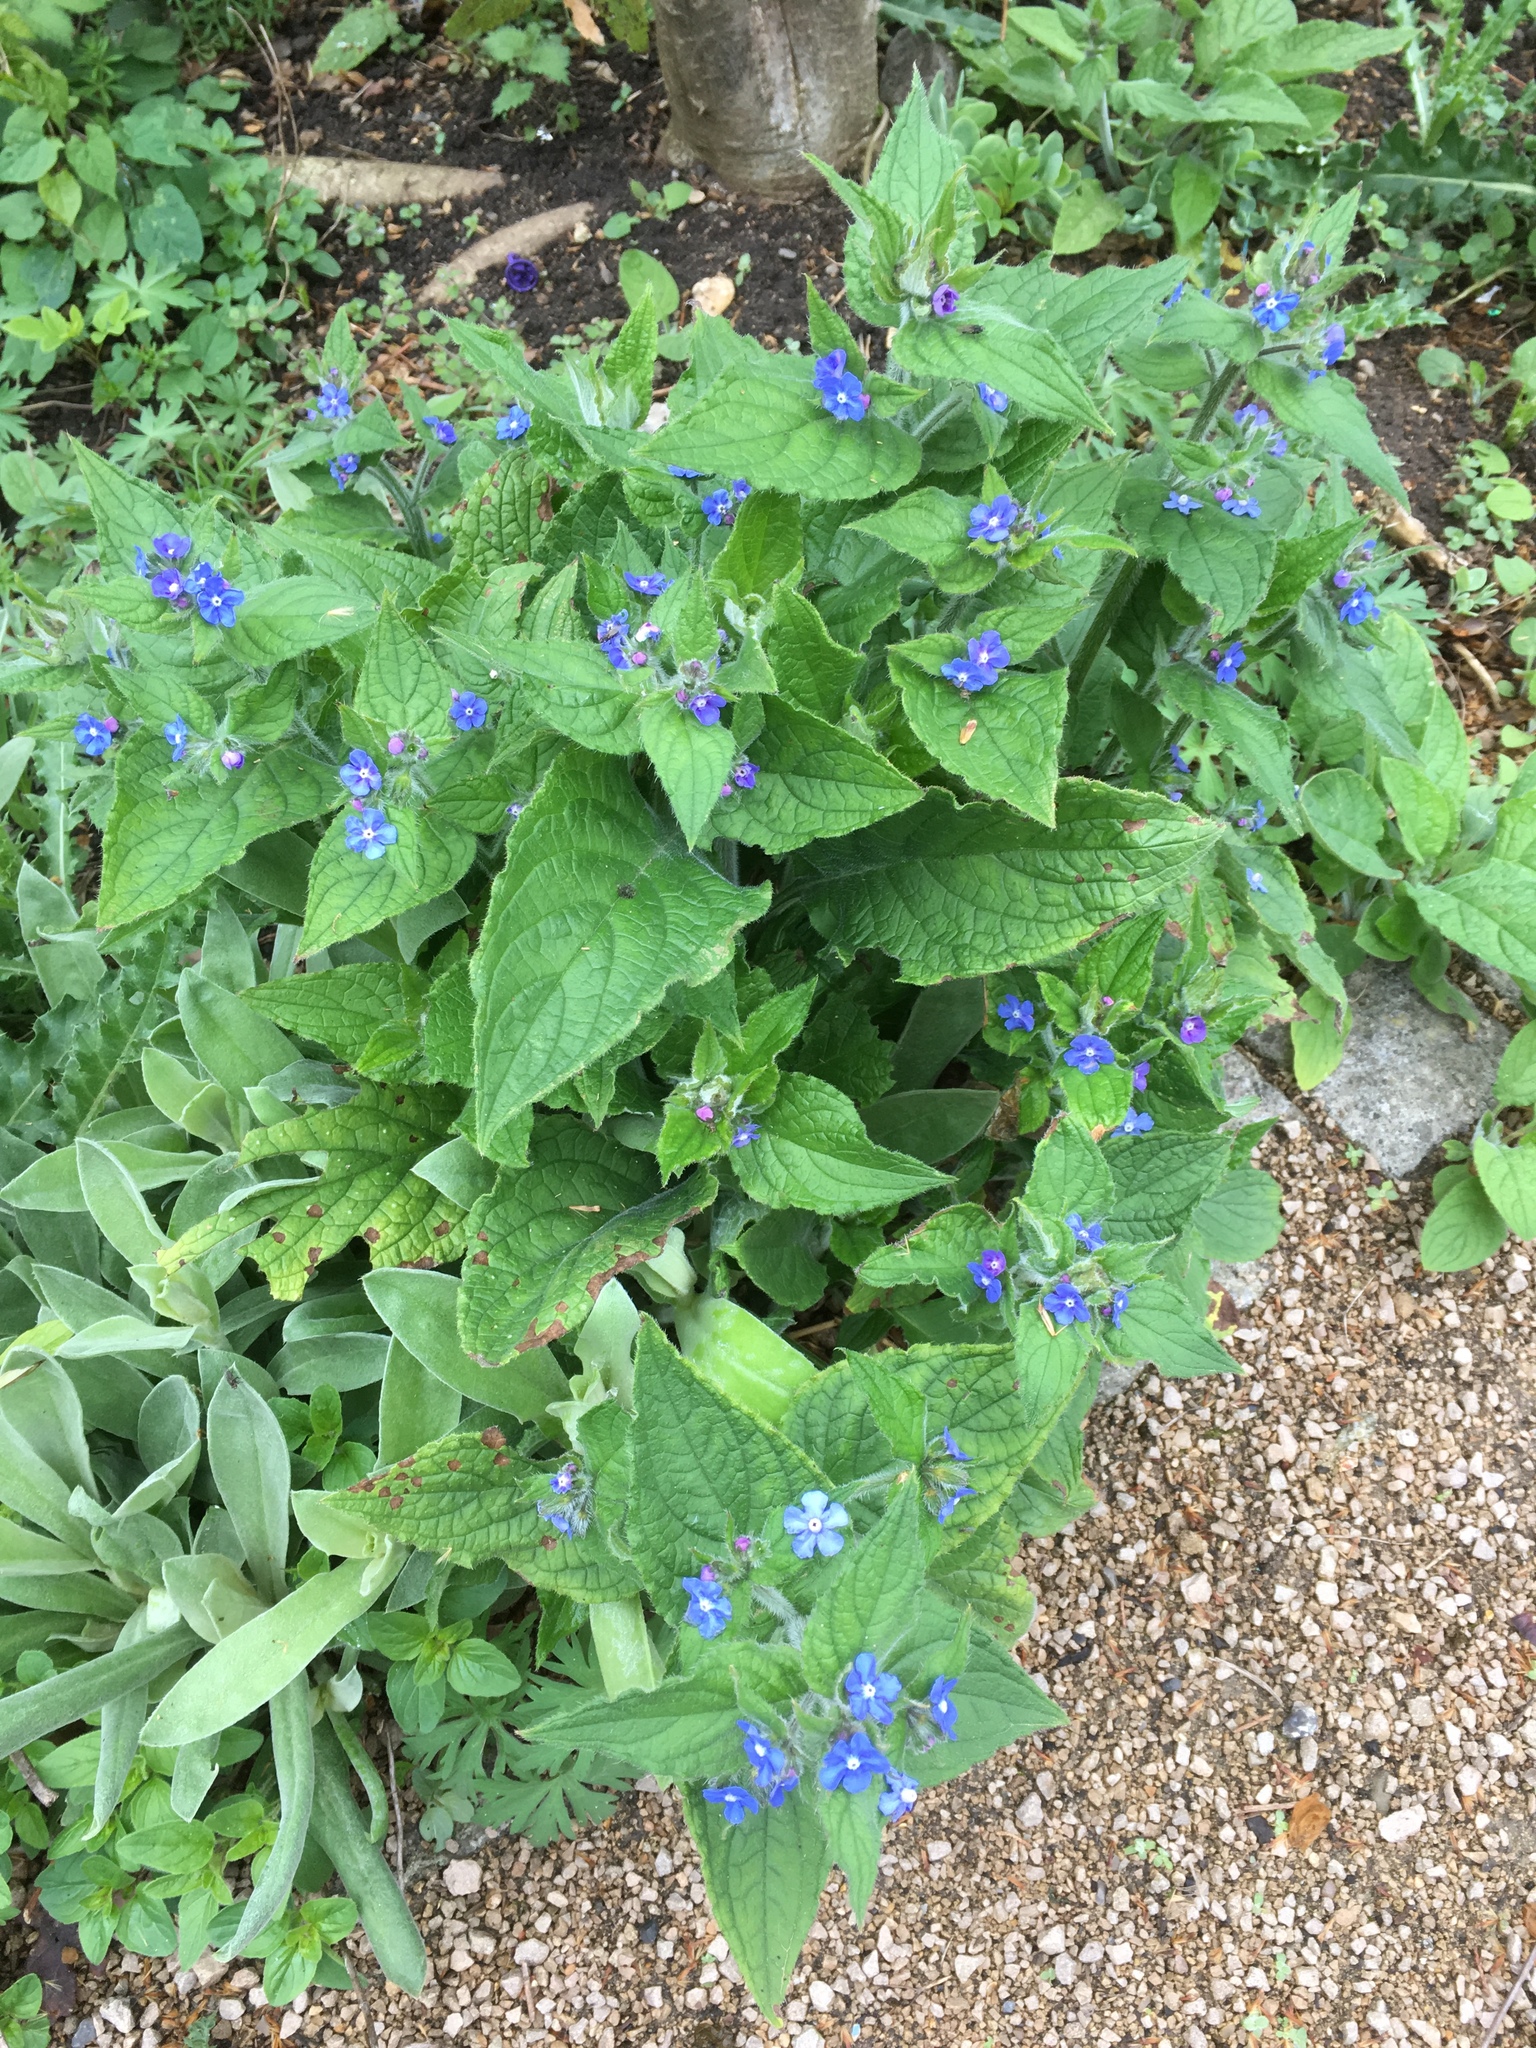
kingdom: Plantae
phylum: Tracheophyta
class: Magnoliopsida
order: Boraginales
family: Boraginaceae
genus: Pentaglottis
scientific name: Pentaglottis sempervirens
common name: Green alkanet
